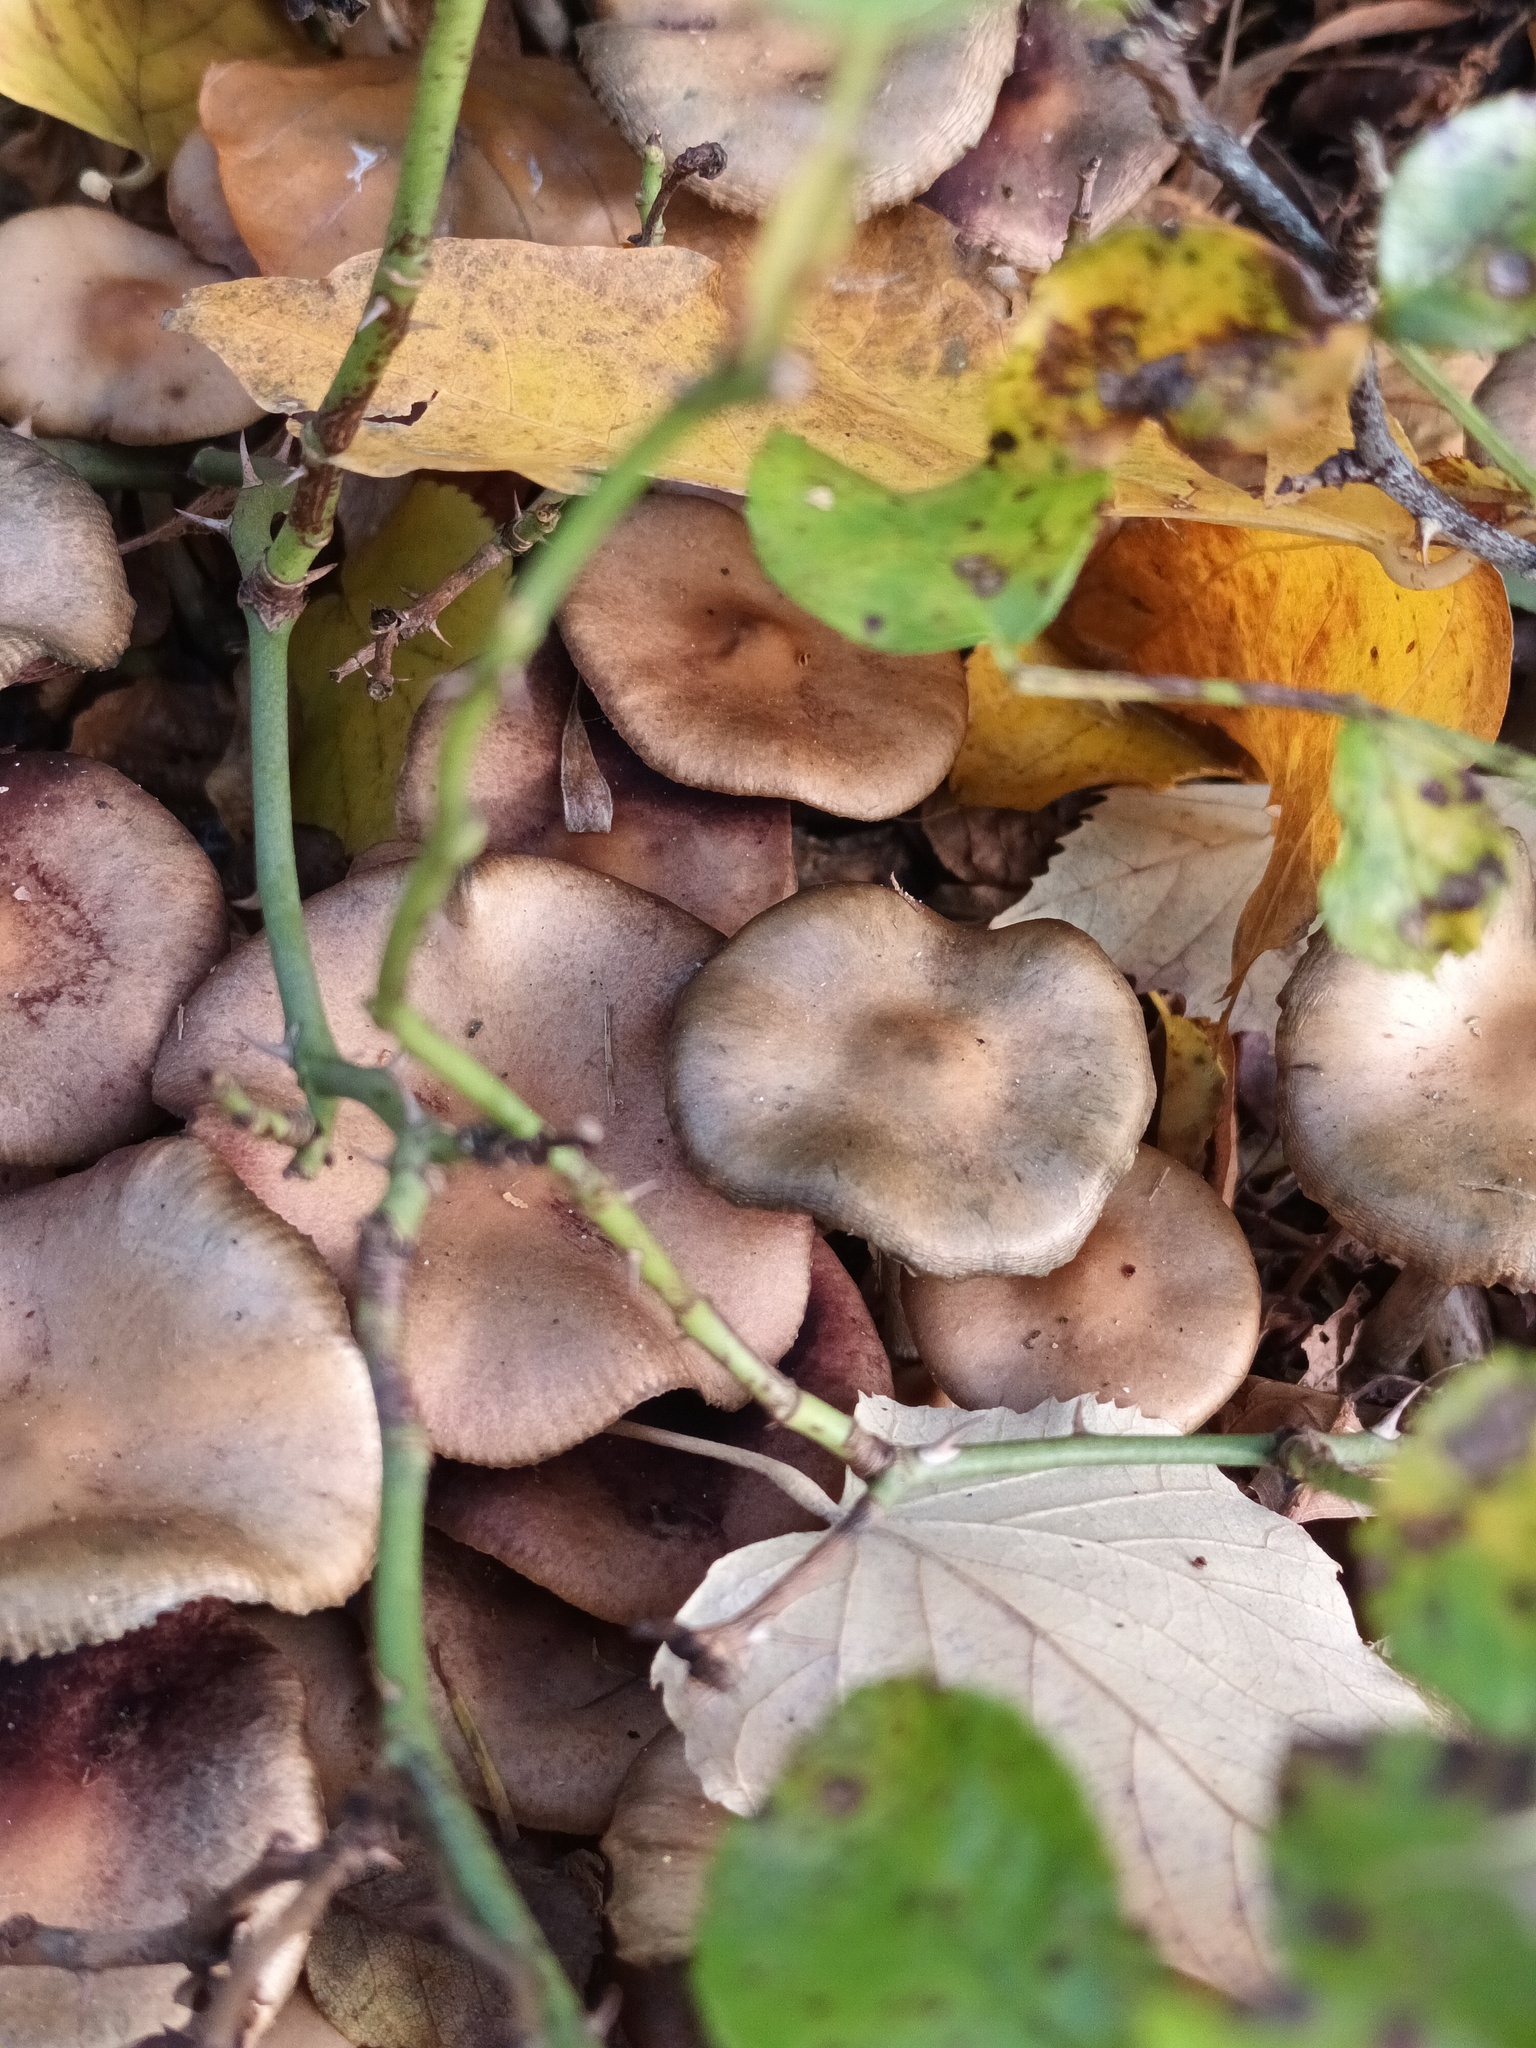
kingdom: Fungi
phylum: Basidiomycota
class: Agaricomycetes
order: Agaricales
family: Hymenogastraceae
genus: Psilocybe
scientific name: Psilocybe cyanescens
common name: Blueleg brownie
